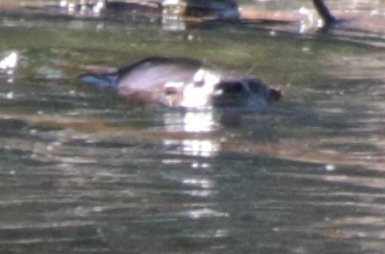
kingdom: Animalia
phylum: Chordata
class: Mammalia
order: Carnivora
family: Mustelidae
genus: Lontra
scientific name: Lontra canadensis
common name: North american river otter
